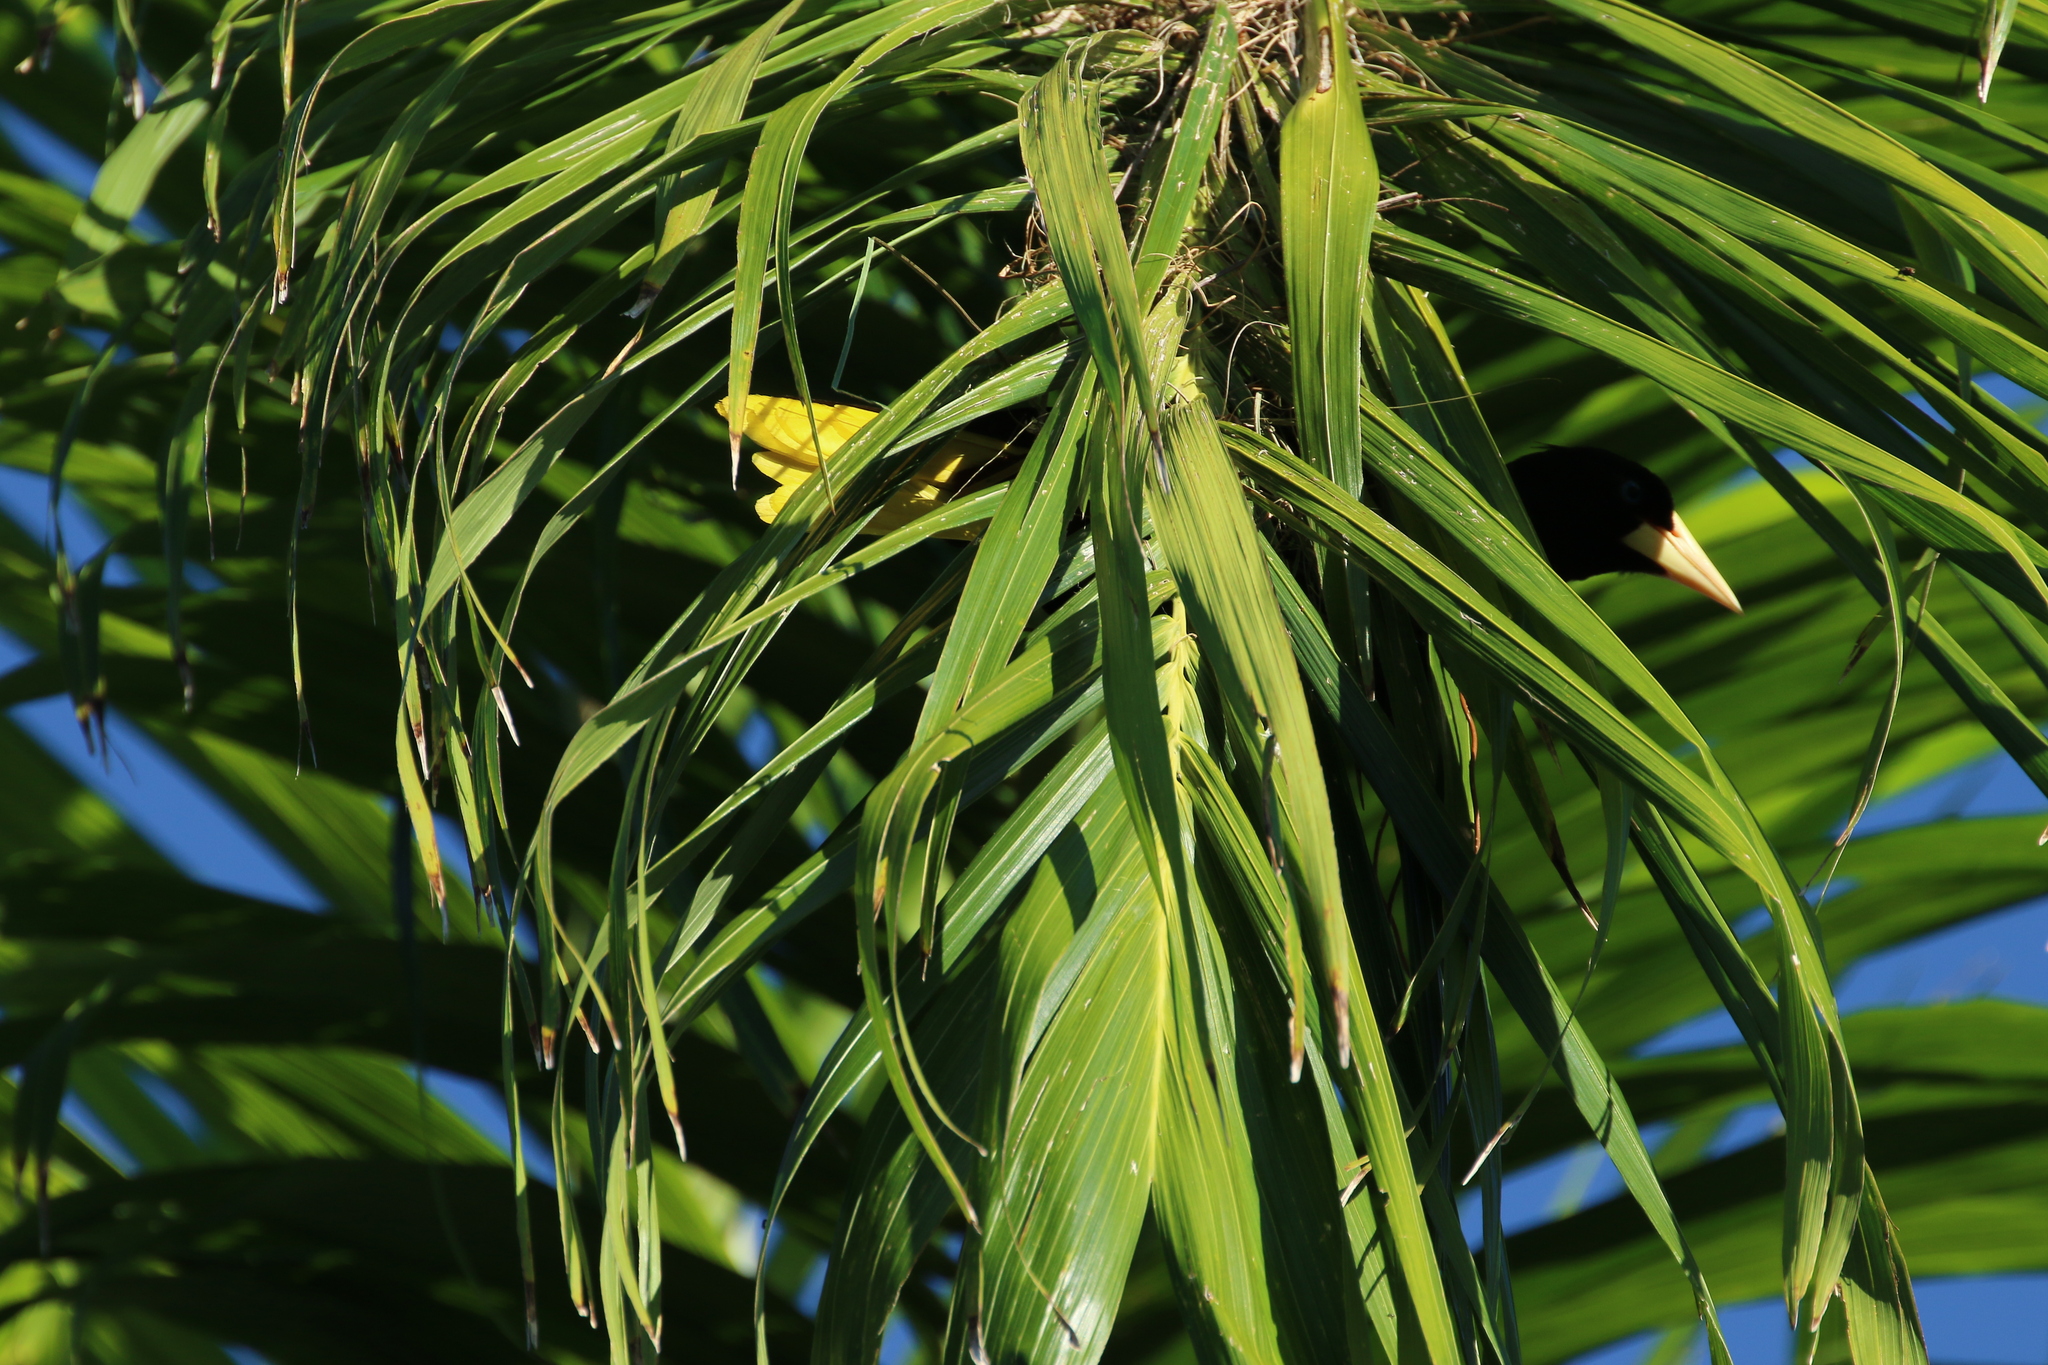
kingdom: Animalia
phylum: Chordata
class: Aves
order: Passeriformes
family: Icteridae
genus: Psarocolius
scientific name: Psarocolius wagleri
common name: Chestnut-headed oropendola
